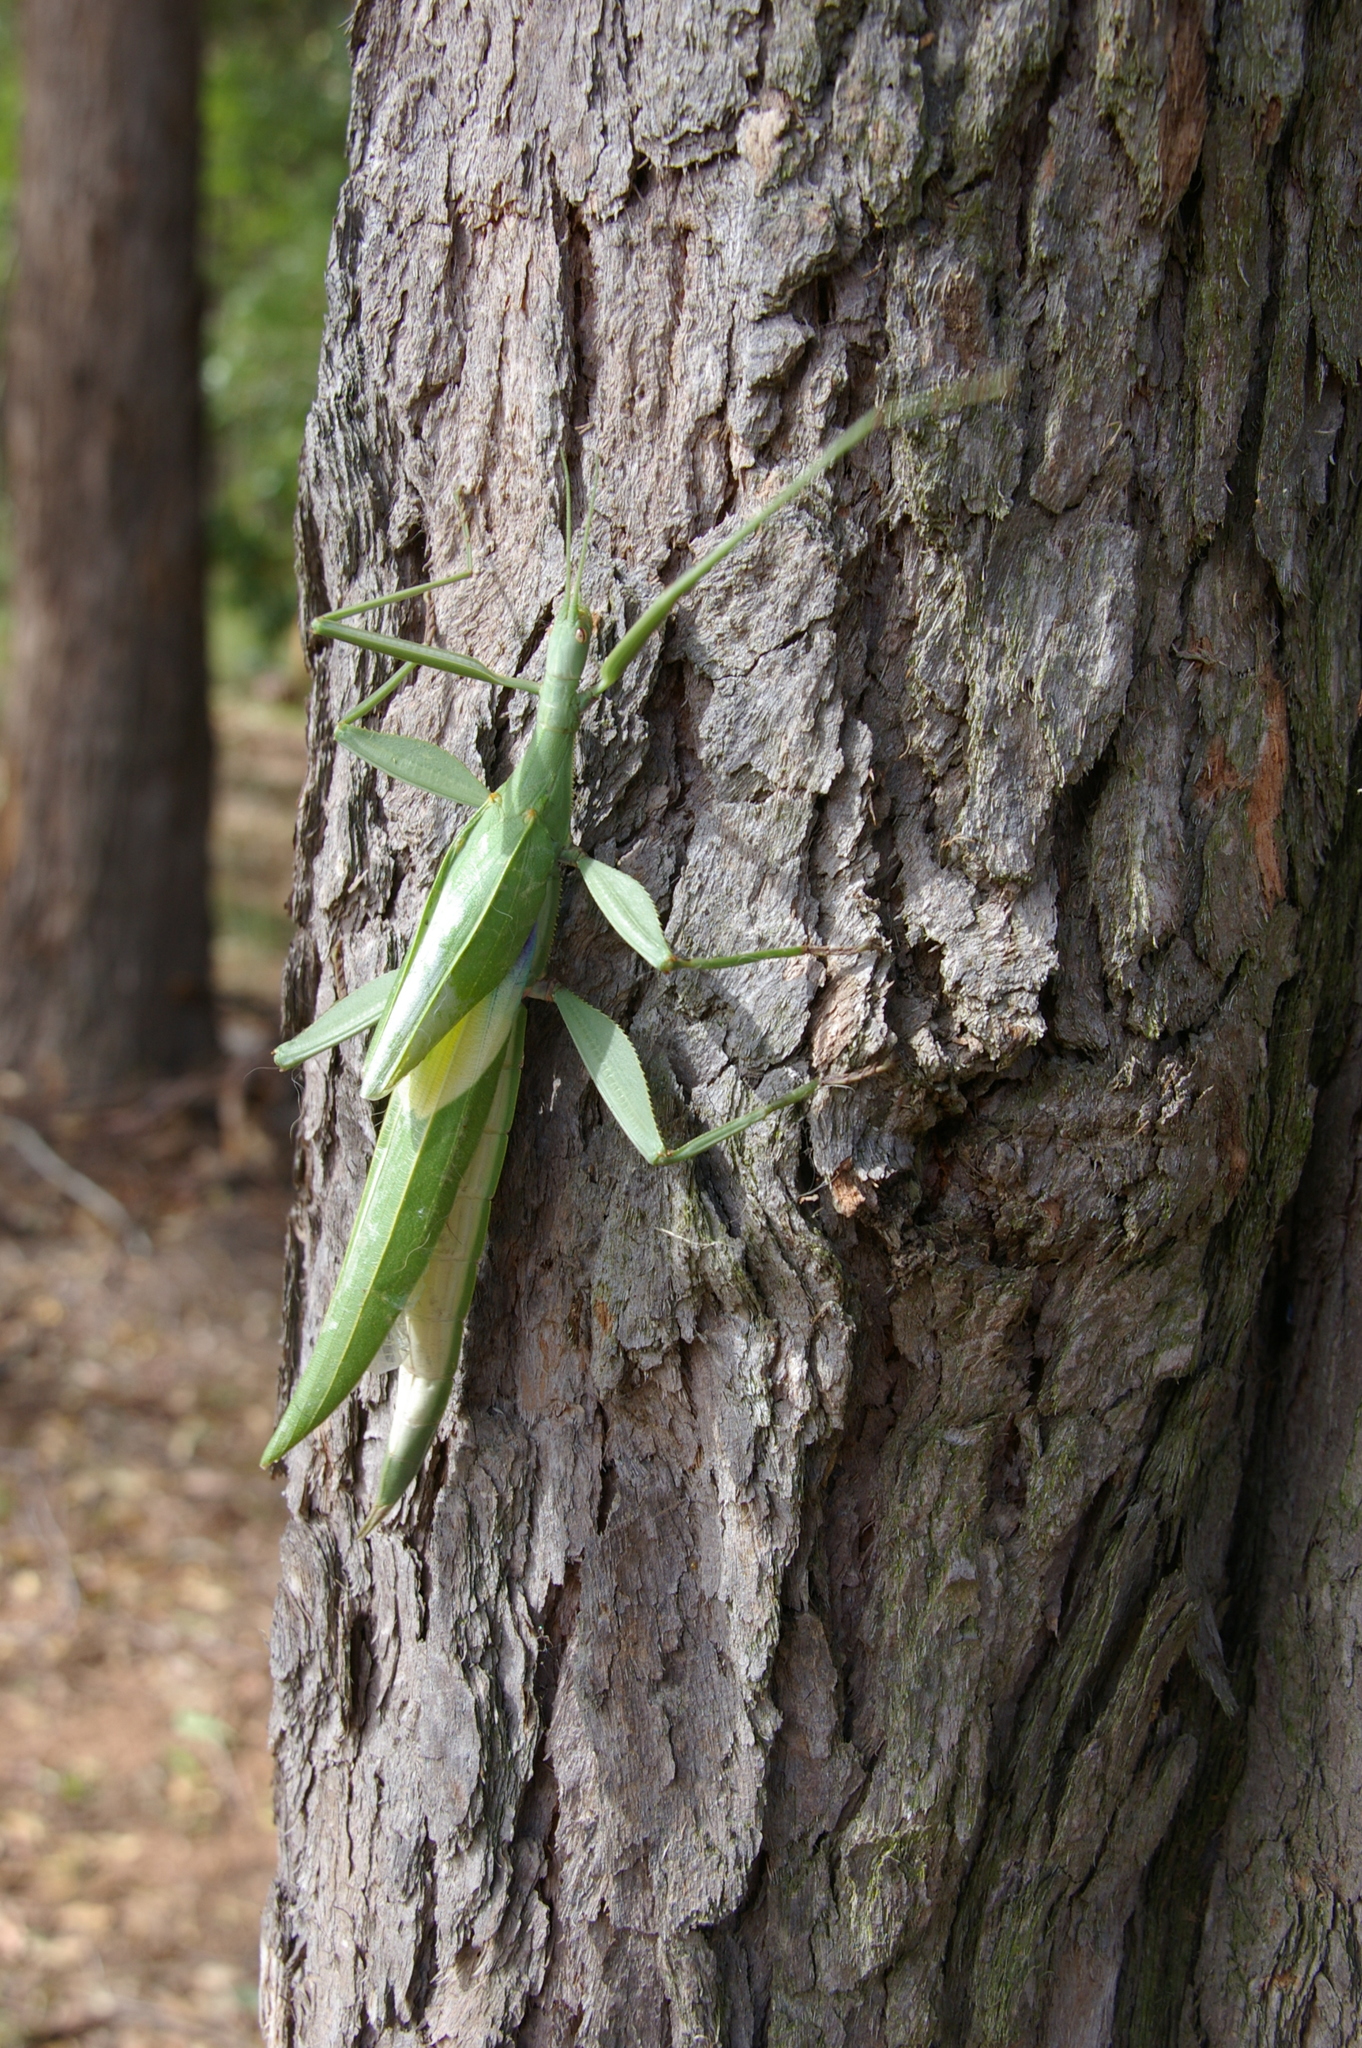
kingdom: Animalia
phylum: Arthropoda
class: Insecta
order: Phasmida
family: Phasmatidae
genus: Tropidoderus
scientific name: Tropidoderus childrenii
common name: Children's stick insect
